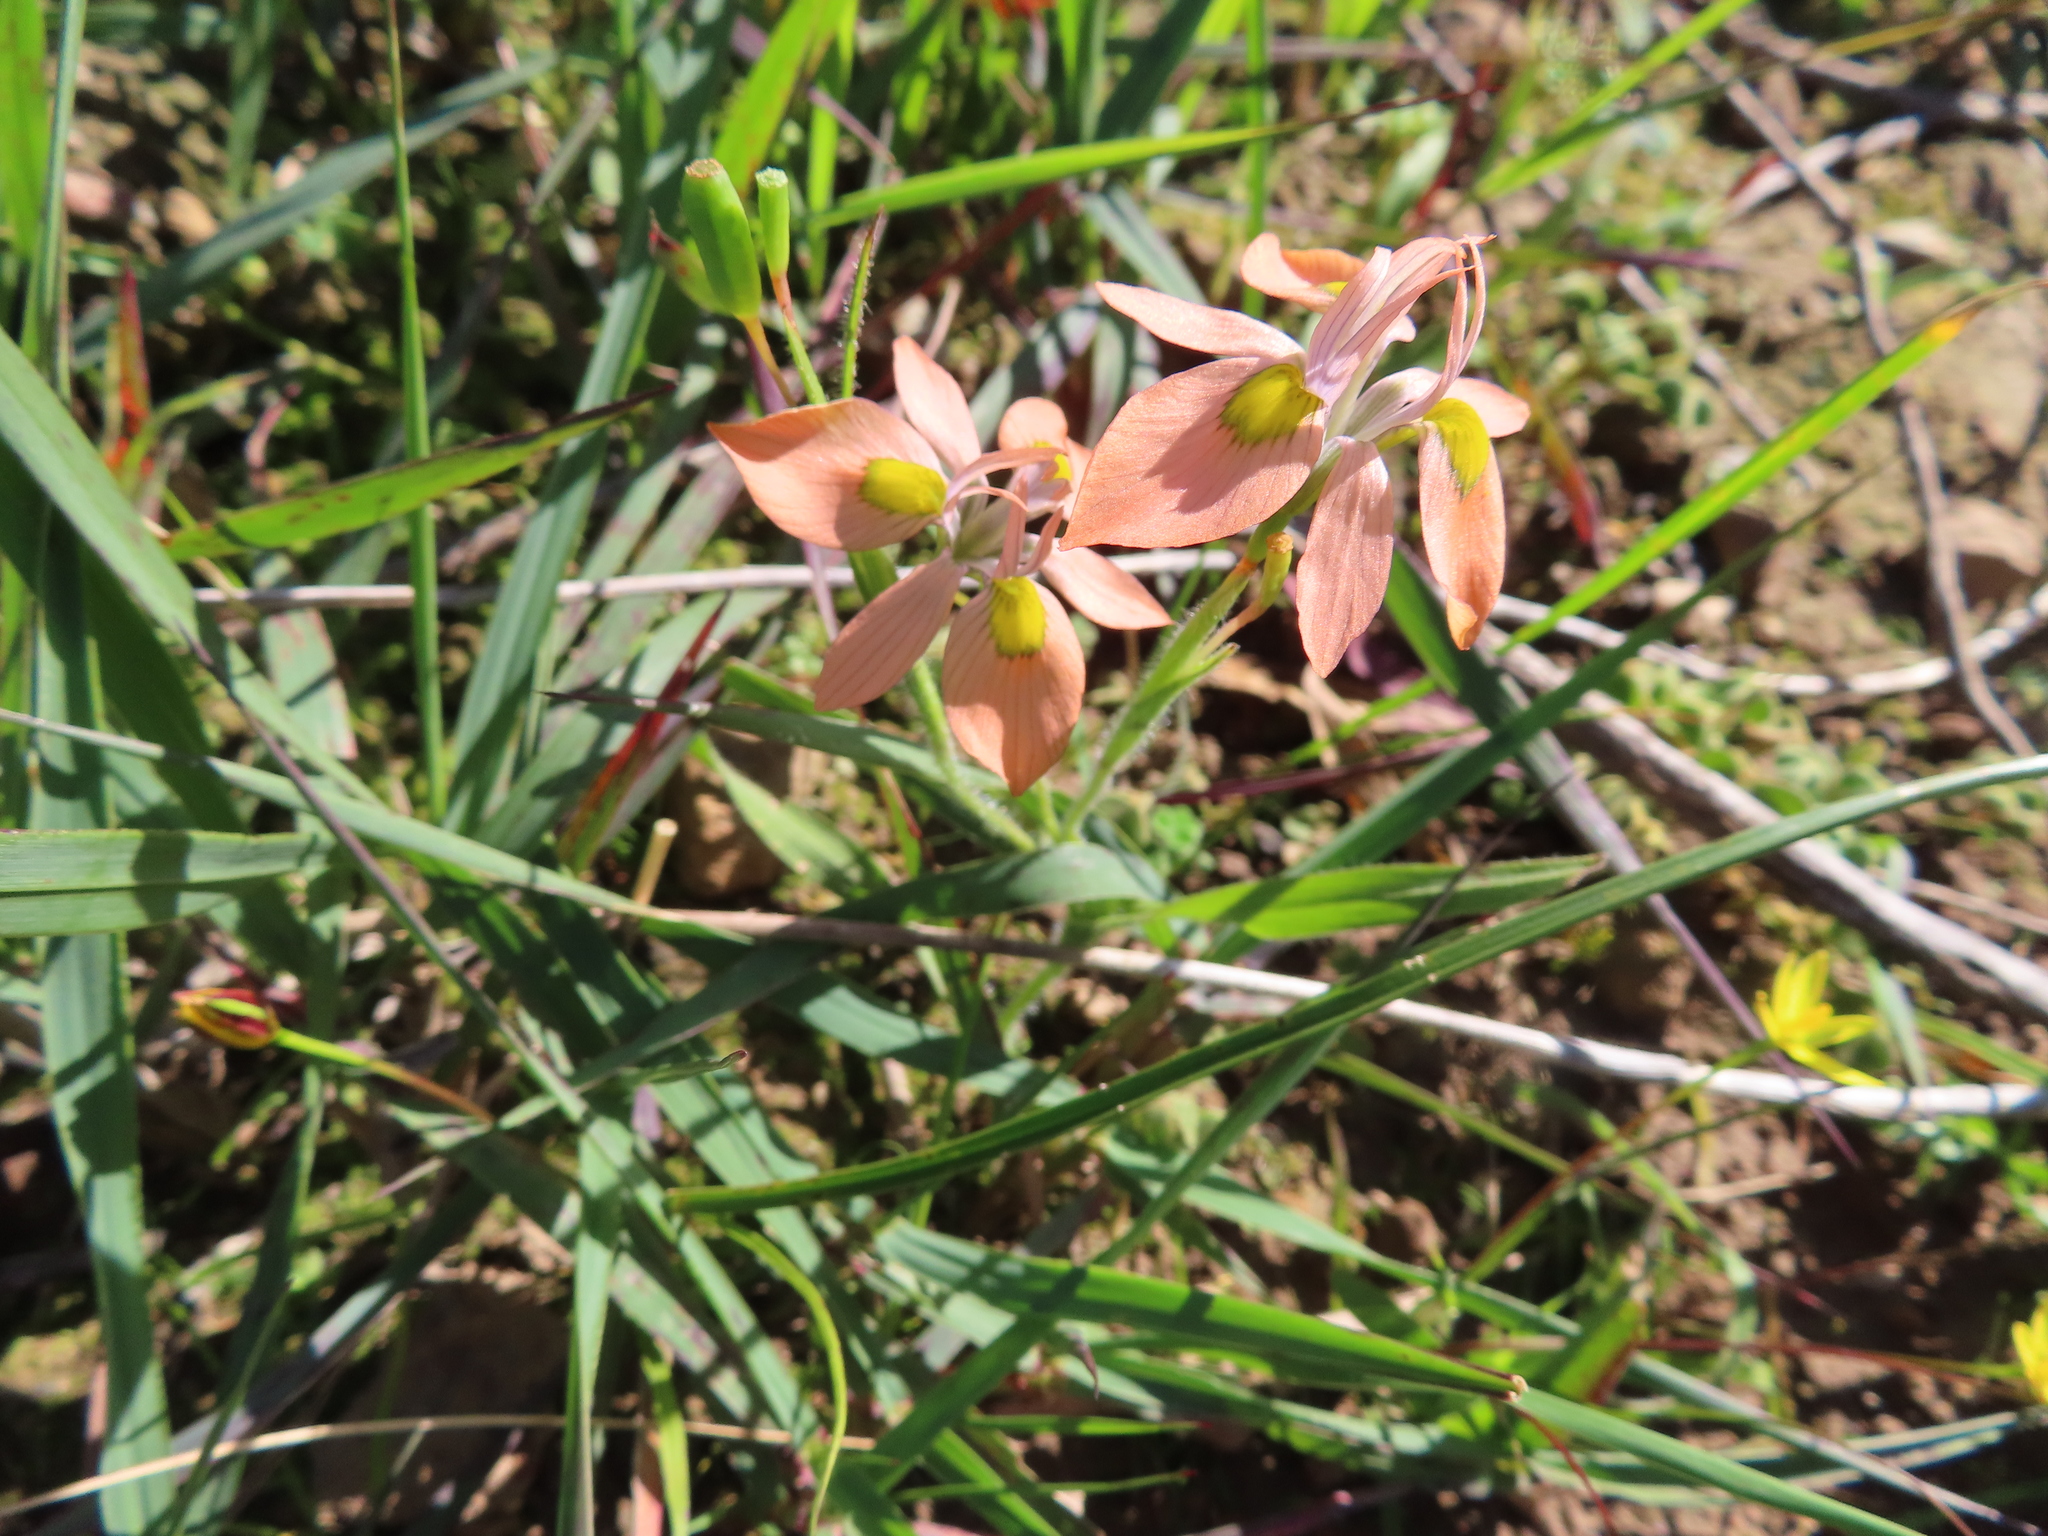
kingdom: Plantae
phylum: Tracheophyta
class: Liliopsida
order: Asparagales
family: Iridaceae
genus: Moraea
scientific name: Moraea papilionacea
